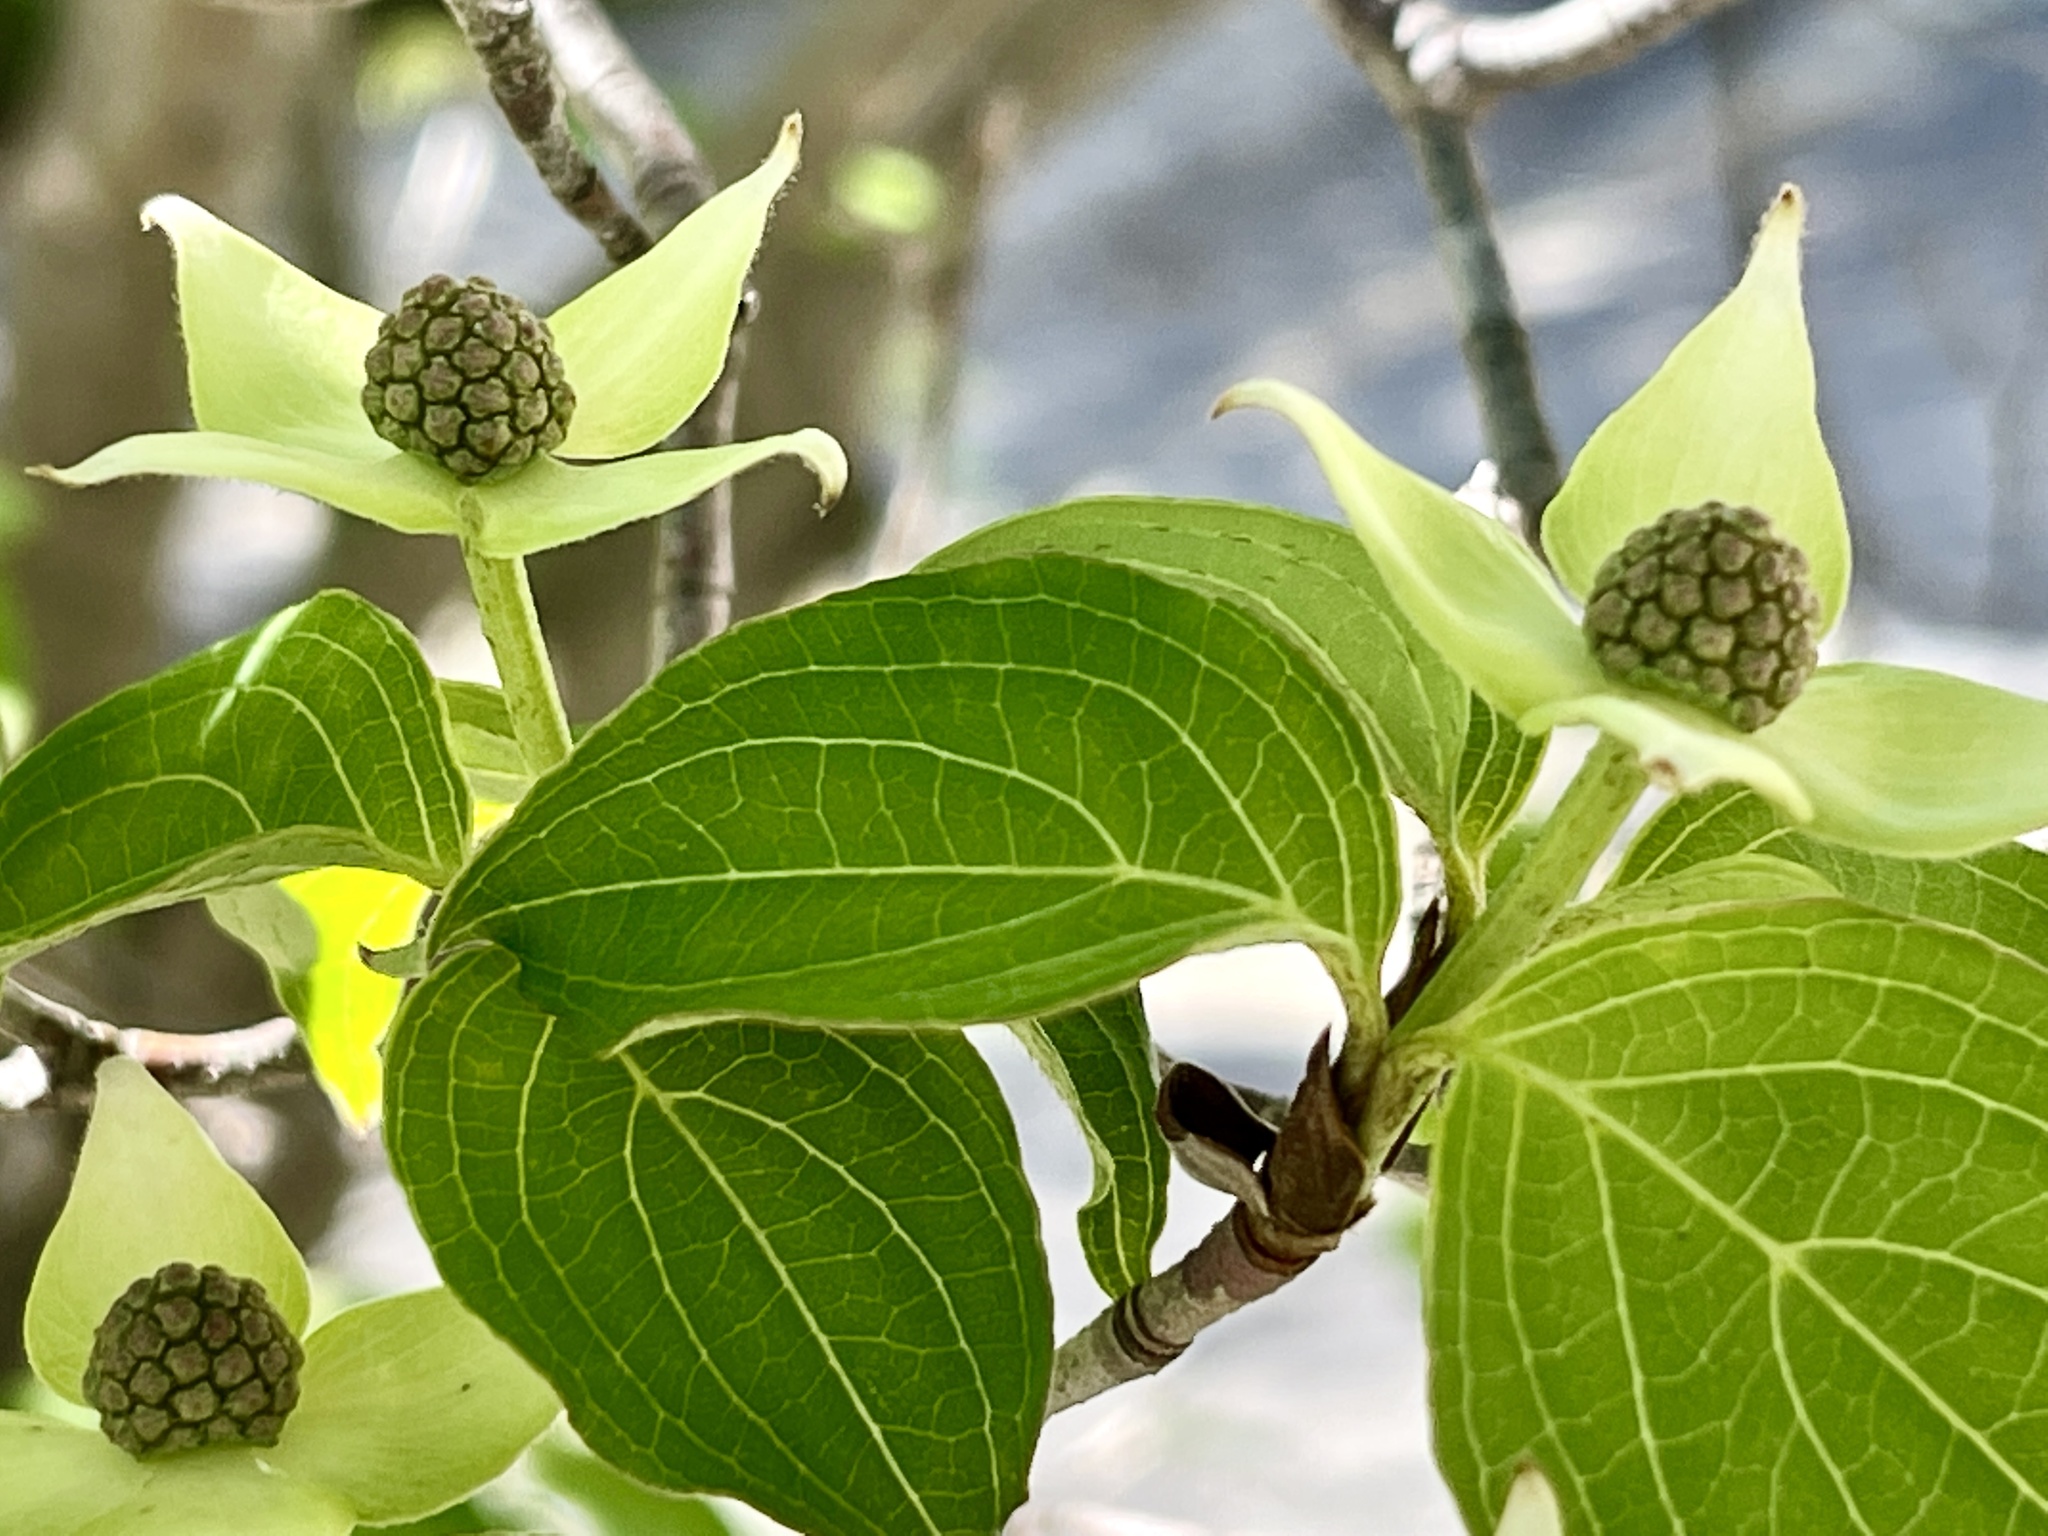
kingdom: Plantae
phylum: Tracheophyta
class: Magnoliopsida
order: Cornales
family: Cornaceae
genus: Cornus
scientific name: Cornus kousa
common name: Japanese dogwood
